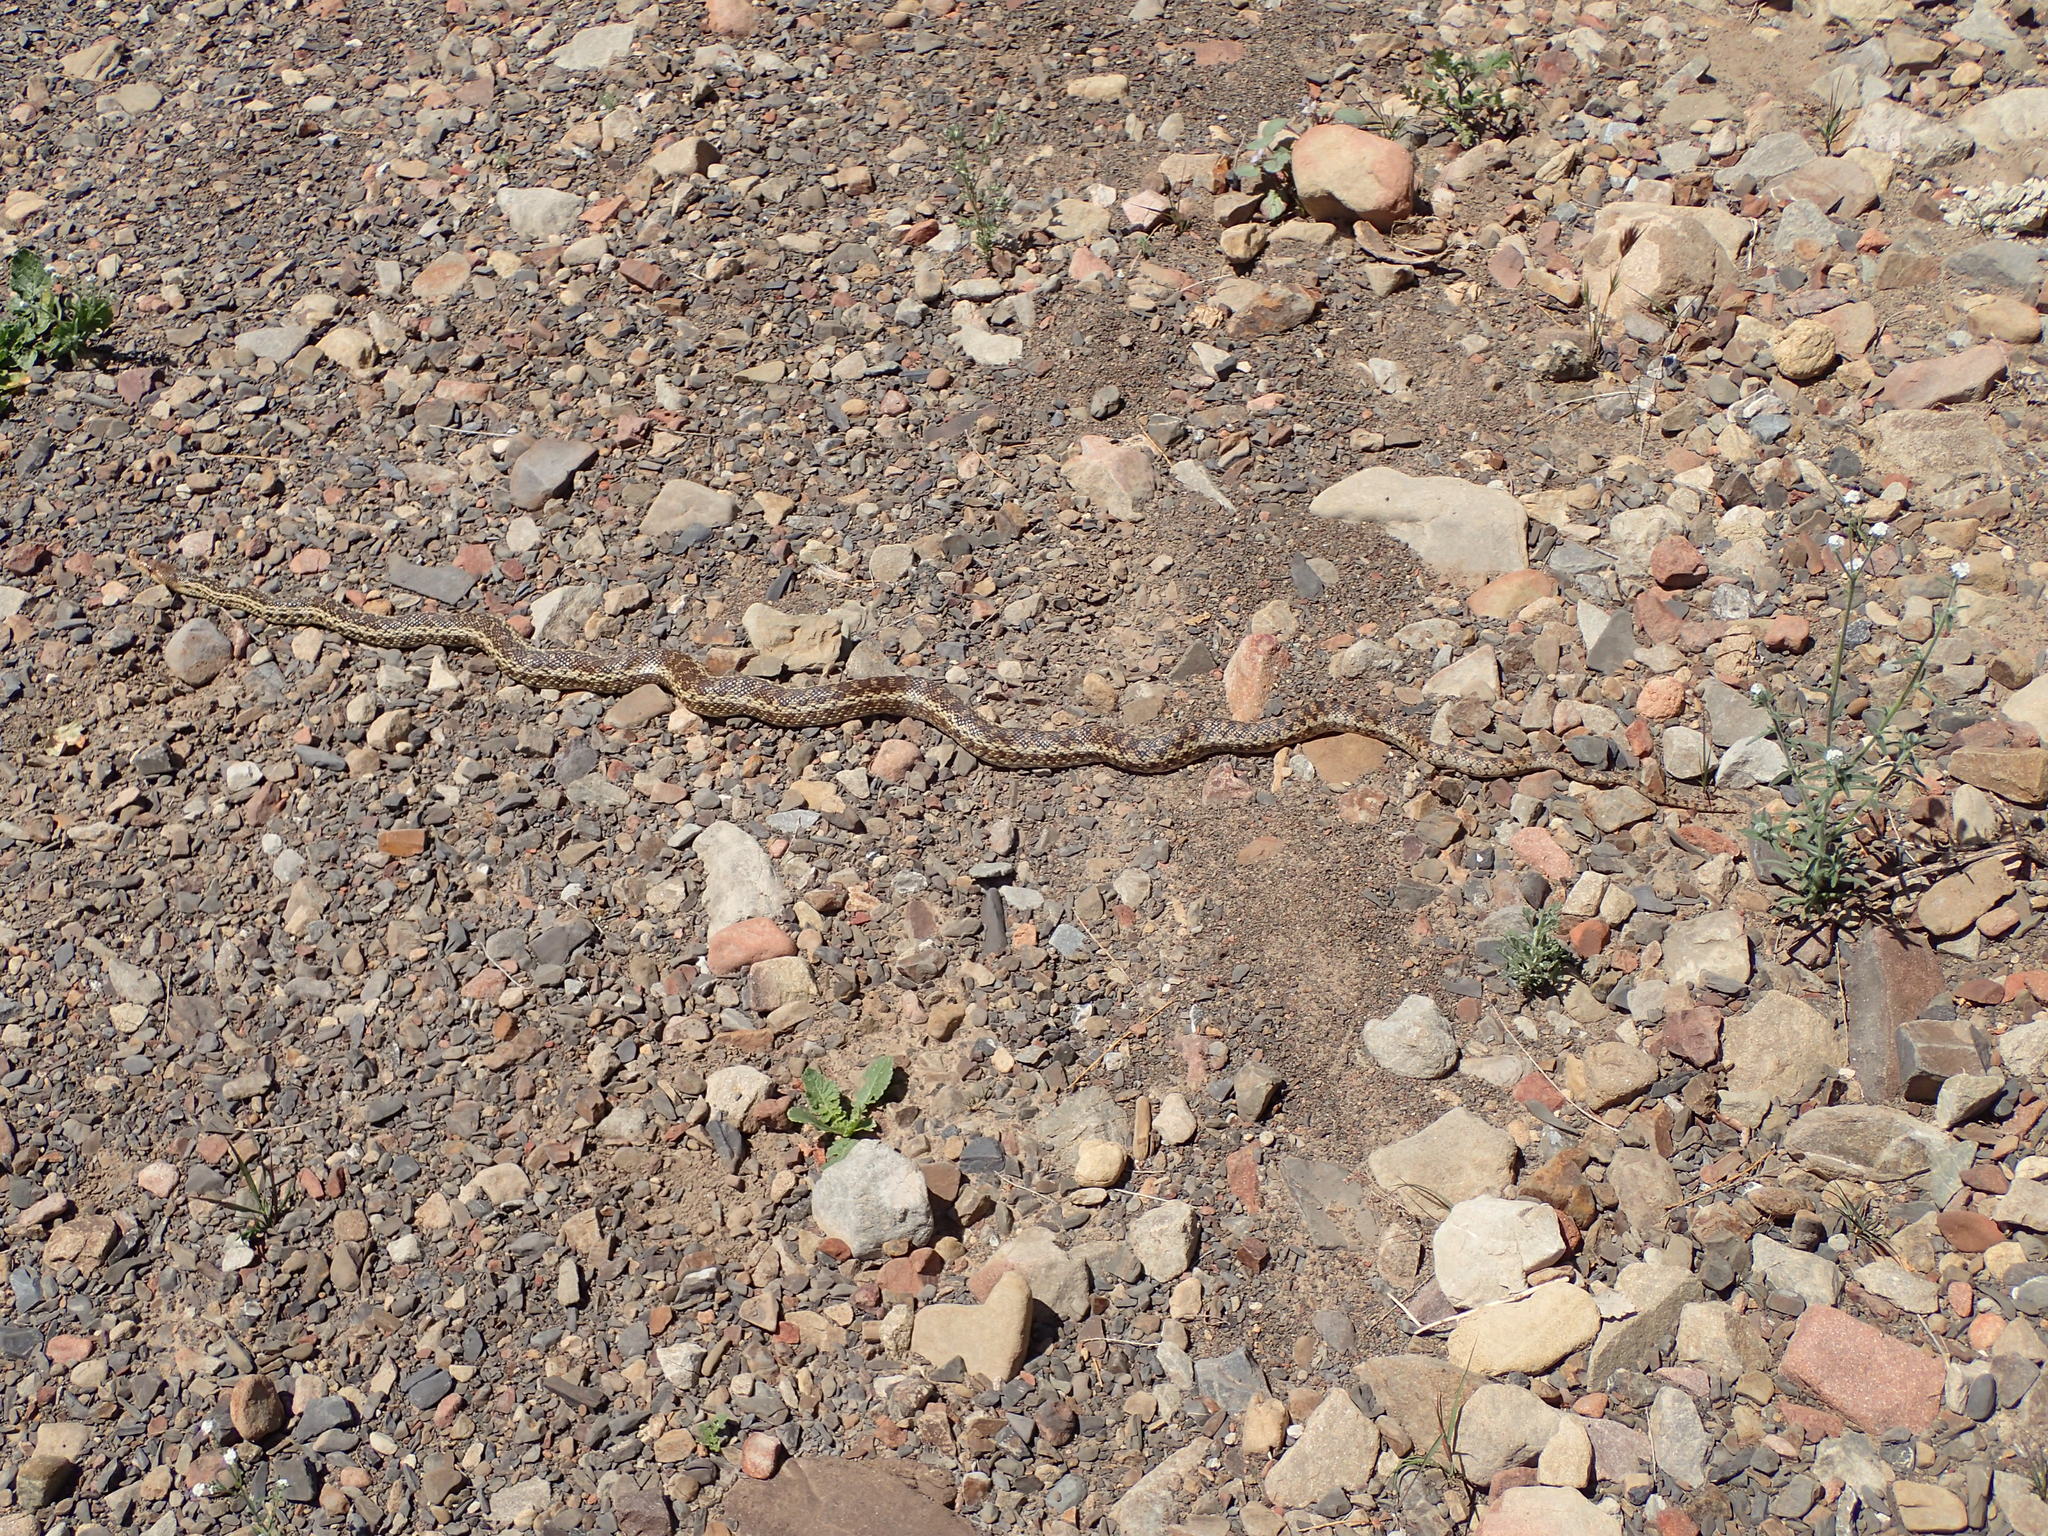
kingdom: Animalia
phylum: Chordata
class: Squamata
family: Colubridae
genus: Pituophis
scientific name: Pituophis catenifer
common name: Gopher snake
